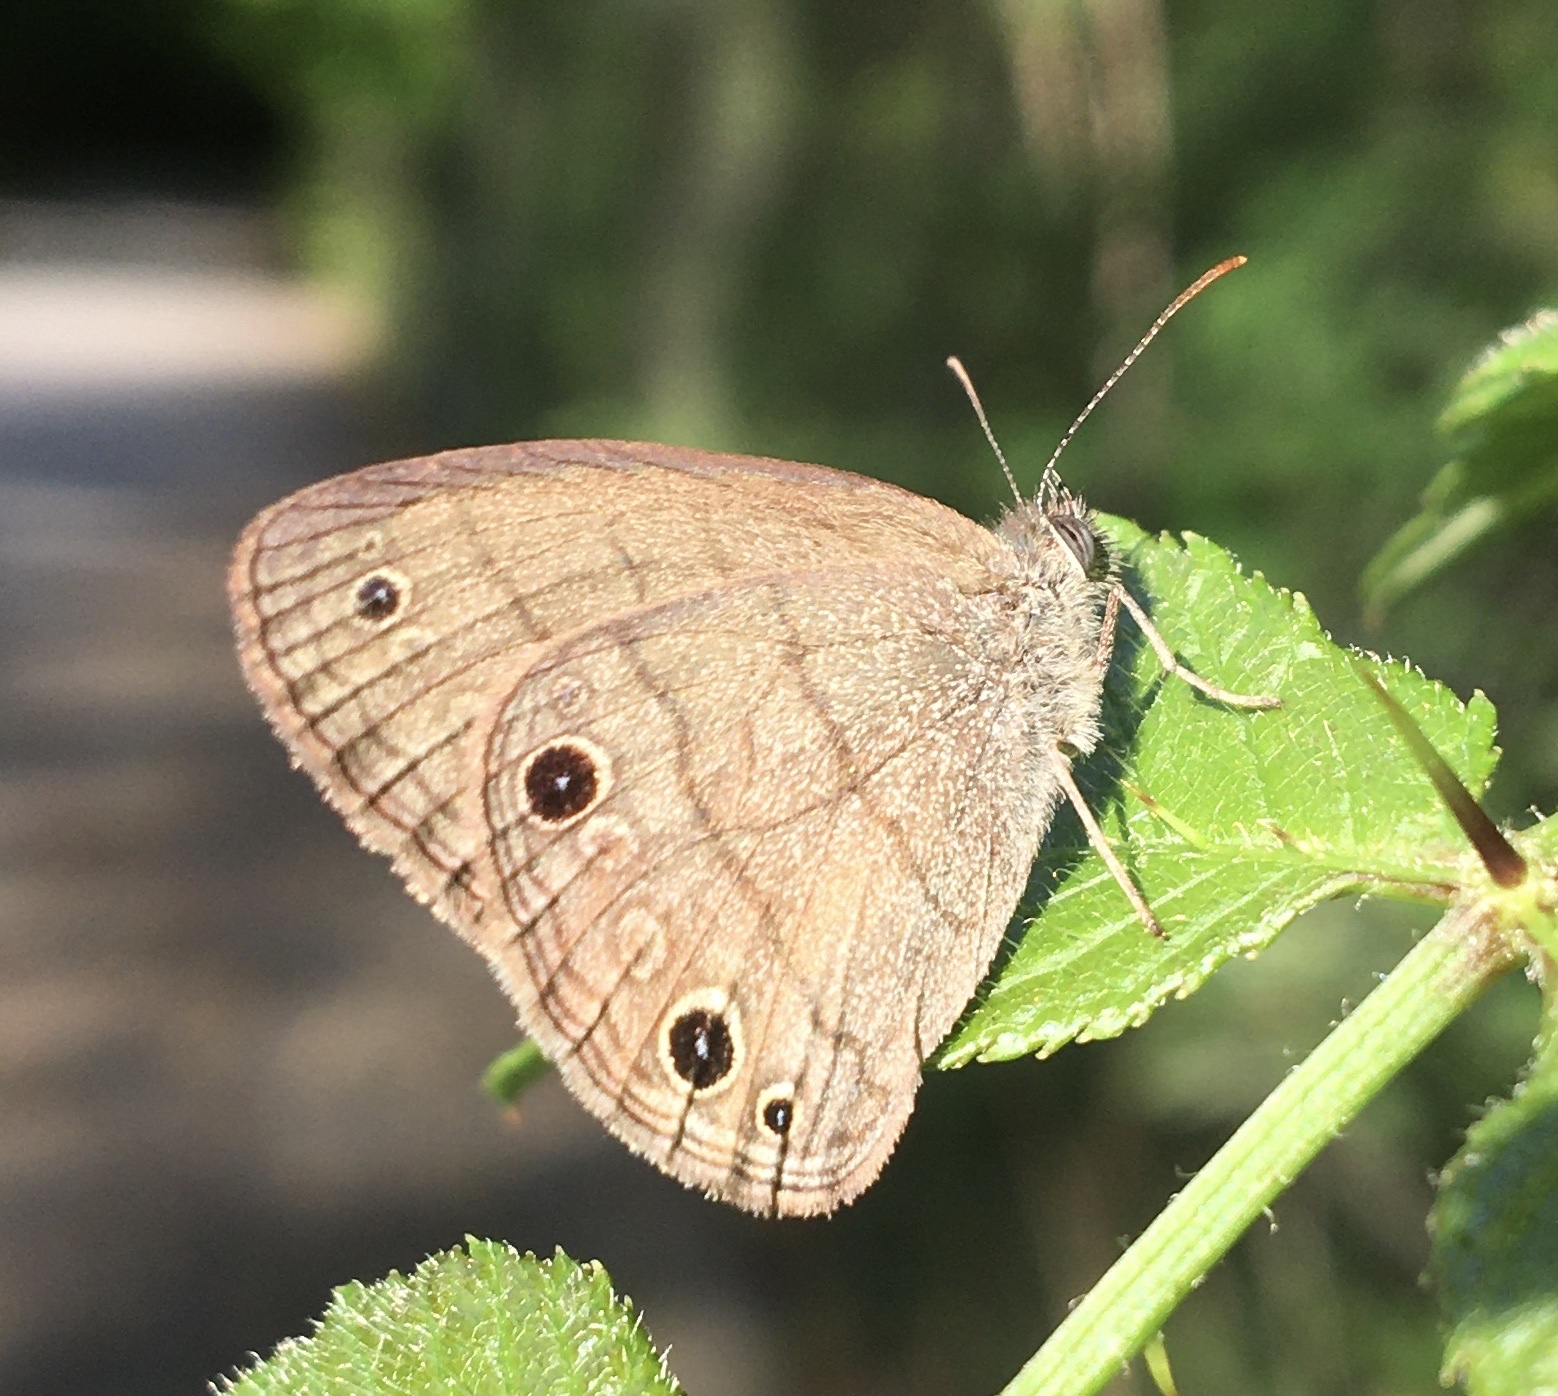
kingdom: Animalia
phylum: Arthropoda
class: Insecta
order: Lepidoptera
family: Nymphalidae
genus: Hermeuptychia
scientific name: Hermeuptychia hermes
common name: Hermes satyr
